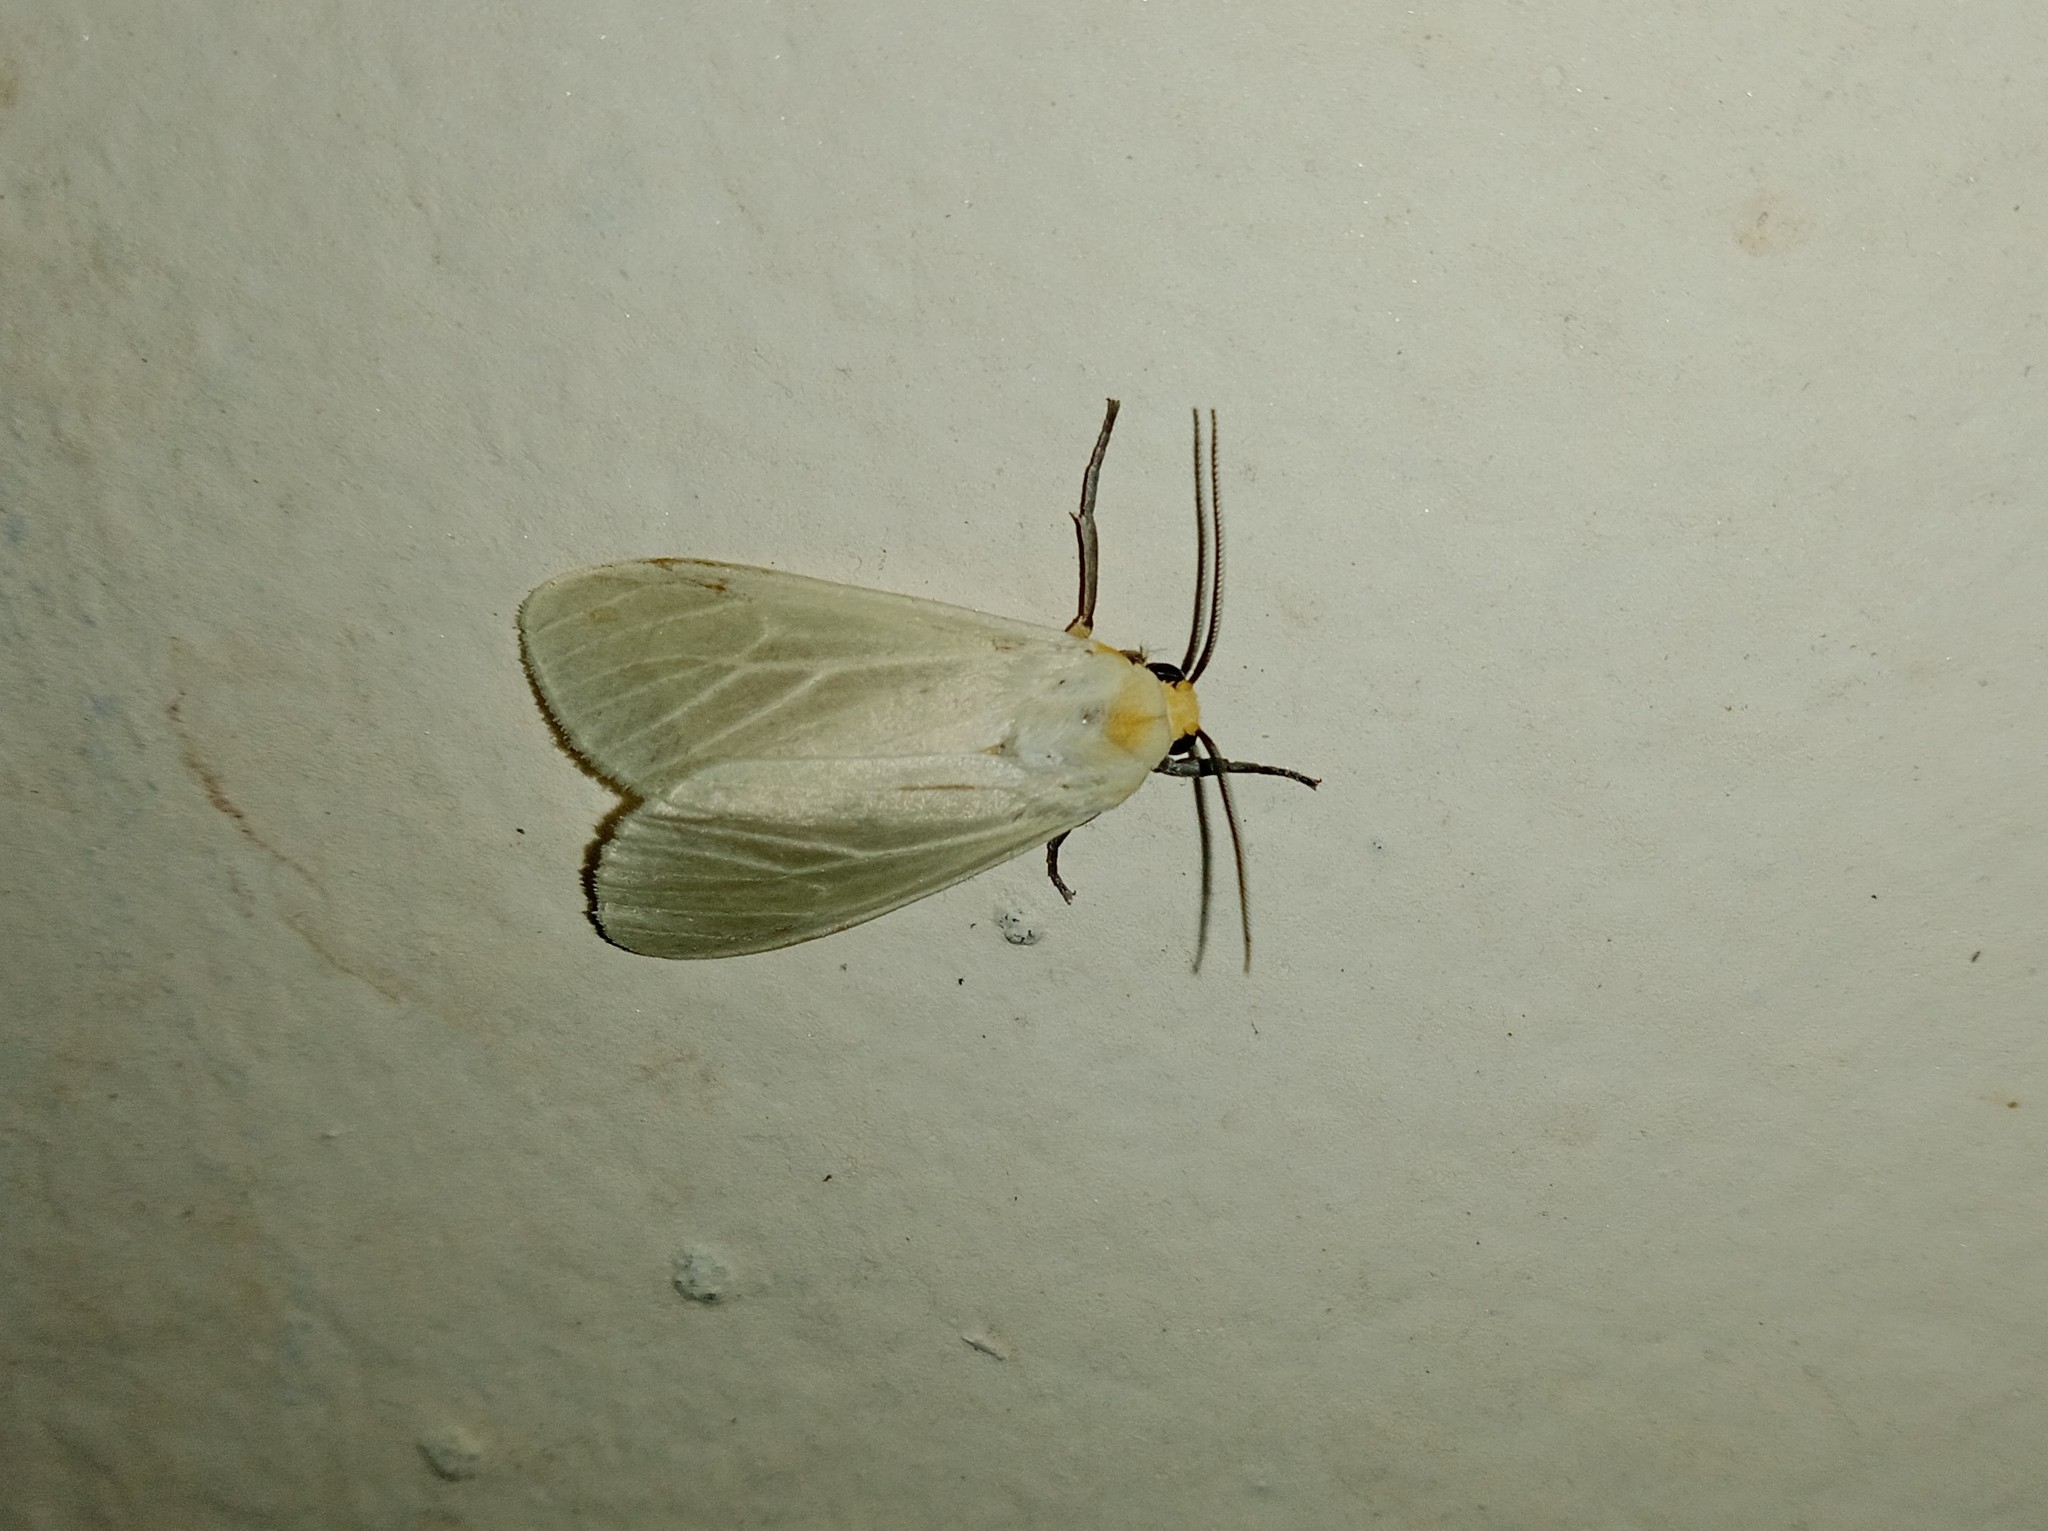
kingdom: Animalia
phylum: Arthropoda
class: Insecta
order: Lepidoptera
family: Erebidae
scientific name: Erebidae
